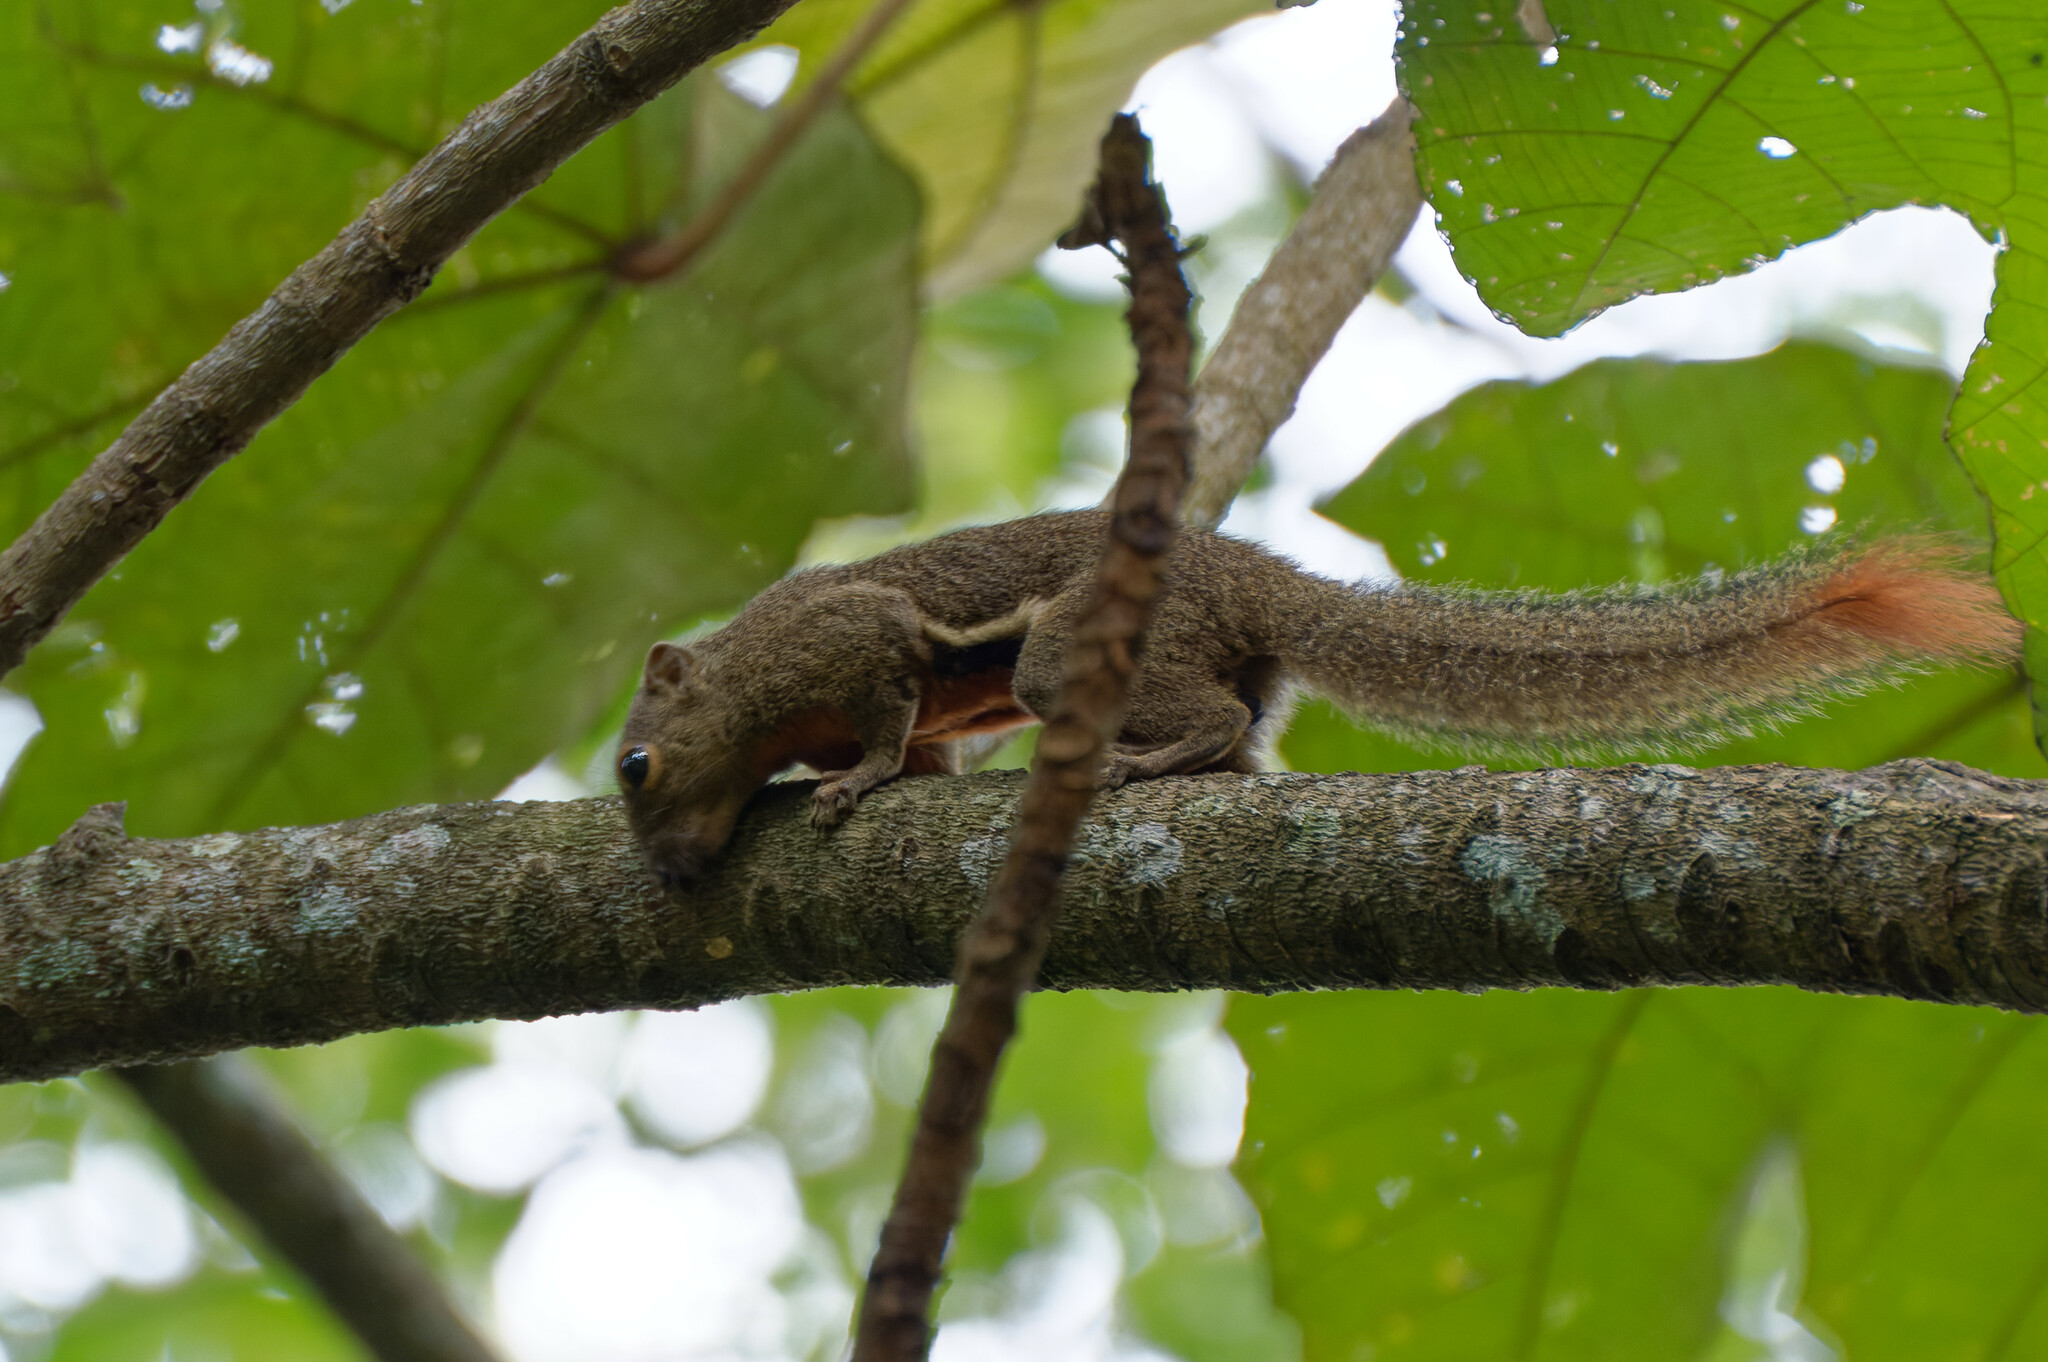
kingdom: Animalia
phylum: Chordata
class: Mammalia
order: Rodentia
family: Sciuridae
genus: Callosciurus
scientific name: Callosciurus notatus
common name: Plantain squirrel
